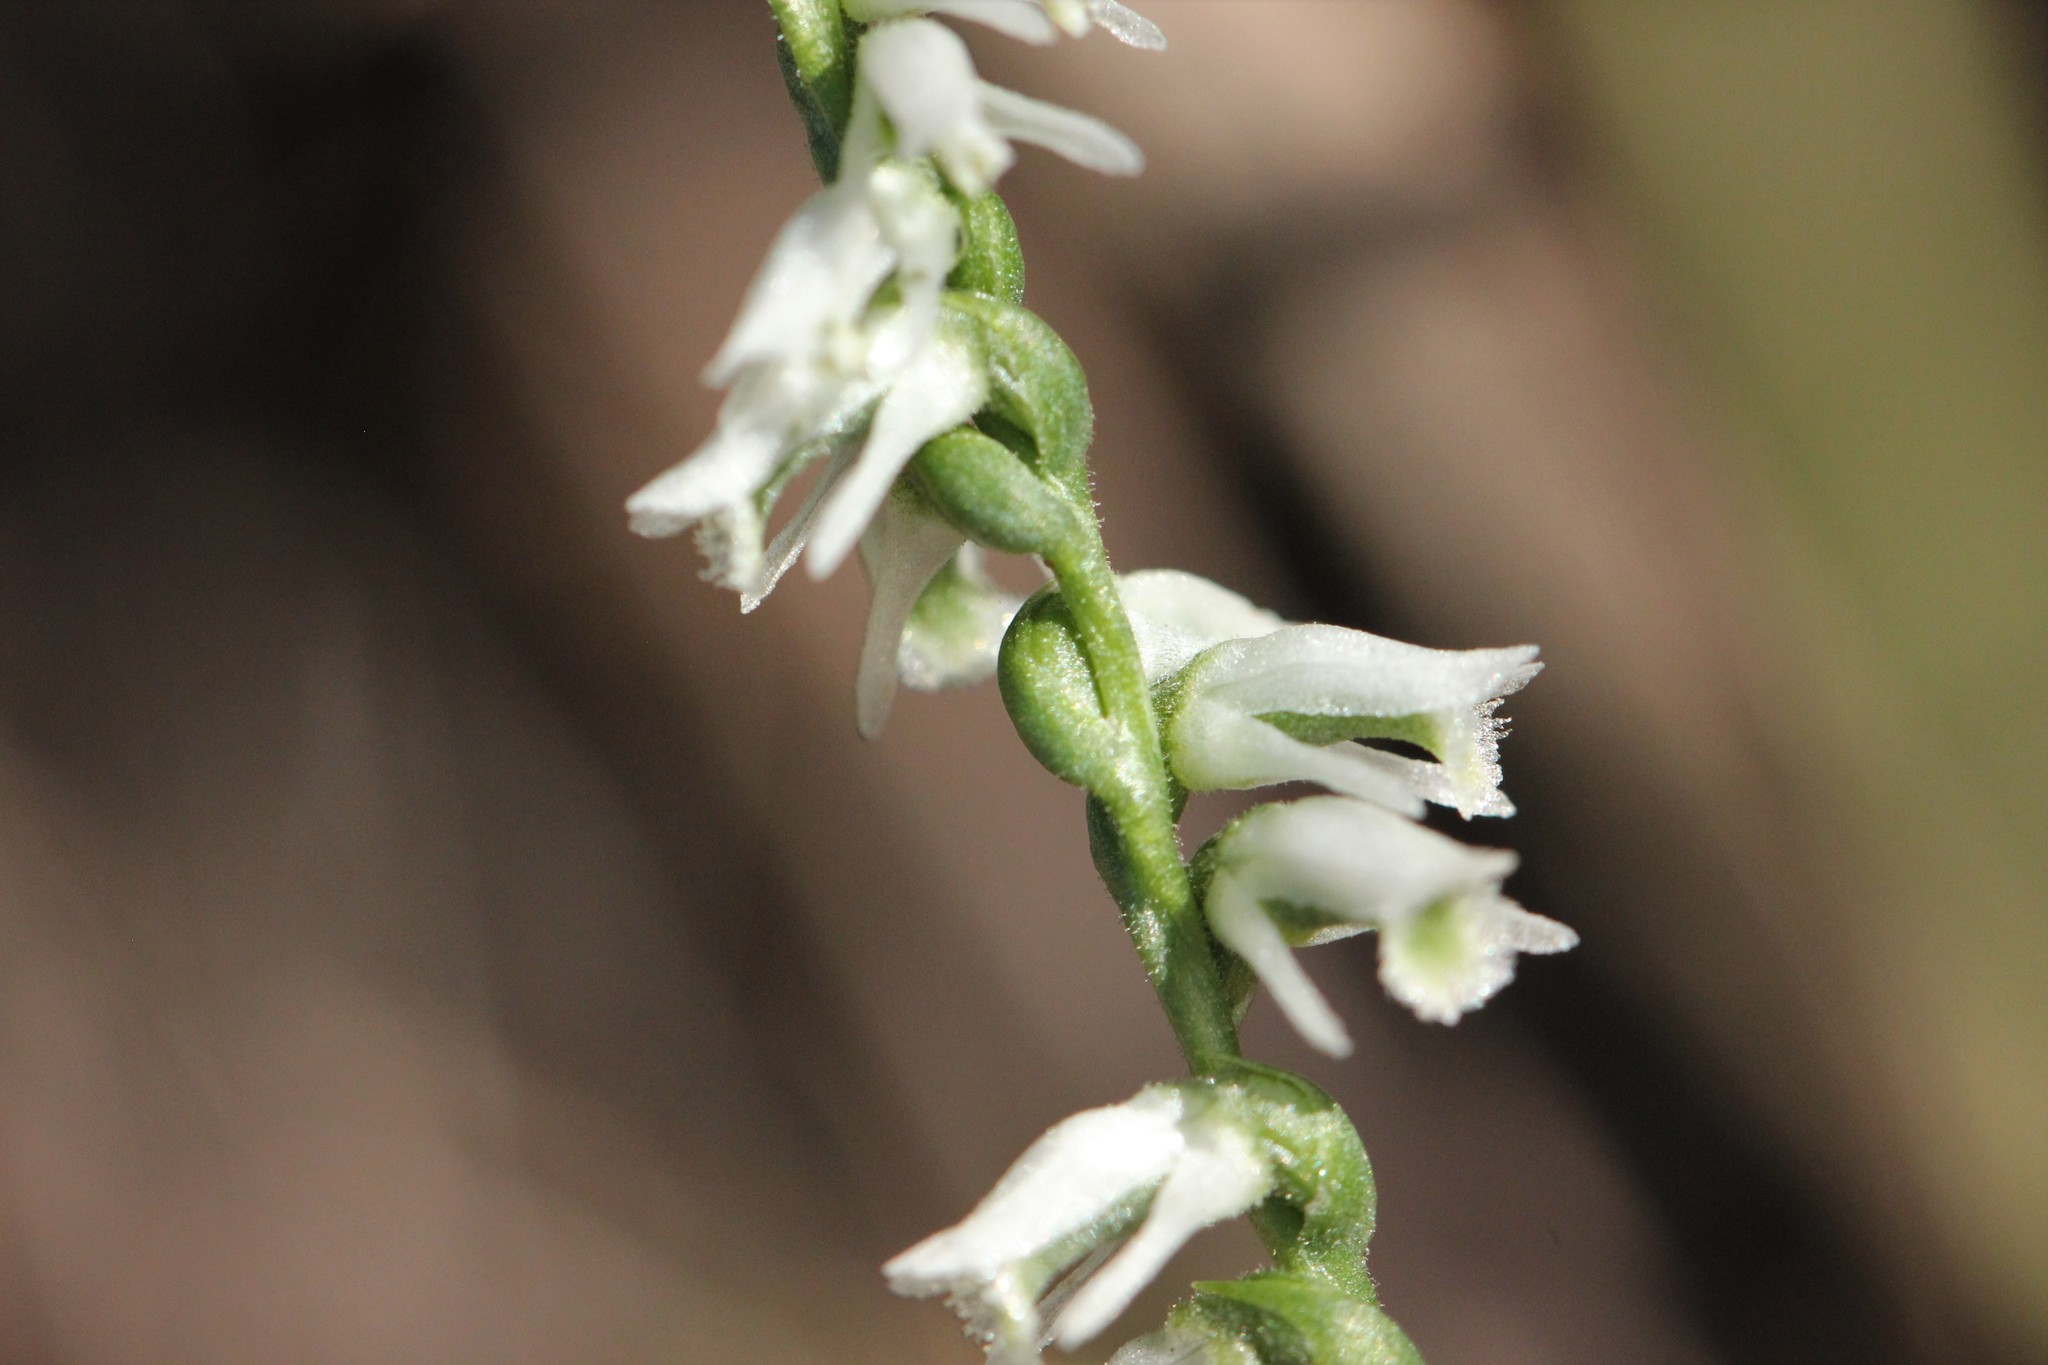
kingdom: Plantae
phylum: Tracheophyta
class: Liliopsida
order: Asparagales
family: Orchidaceae
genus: Spiranthes
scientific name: Spiranthes lacera
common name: Northern slender ladies'-tresses
